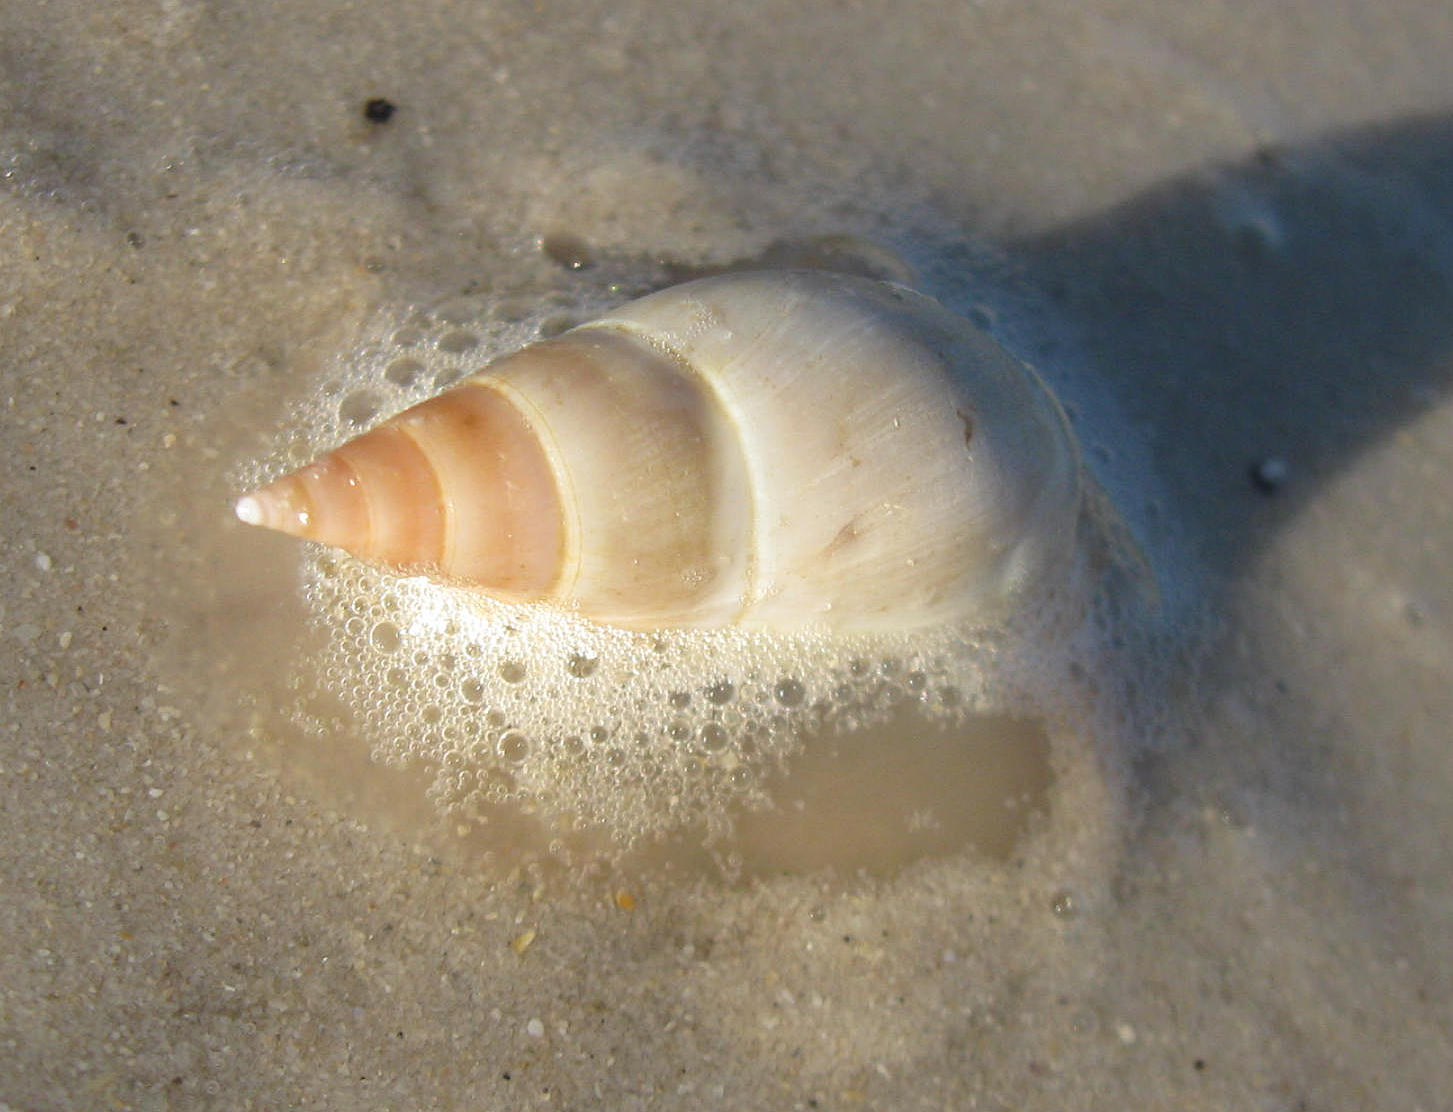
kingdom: Animalia
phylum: Mollusca
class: Gastropoda
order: Neogastropoda
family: Nassariidae
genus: Bullia
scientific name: Bullia rhodostoma
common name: Smooth plough shell
